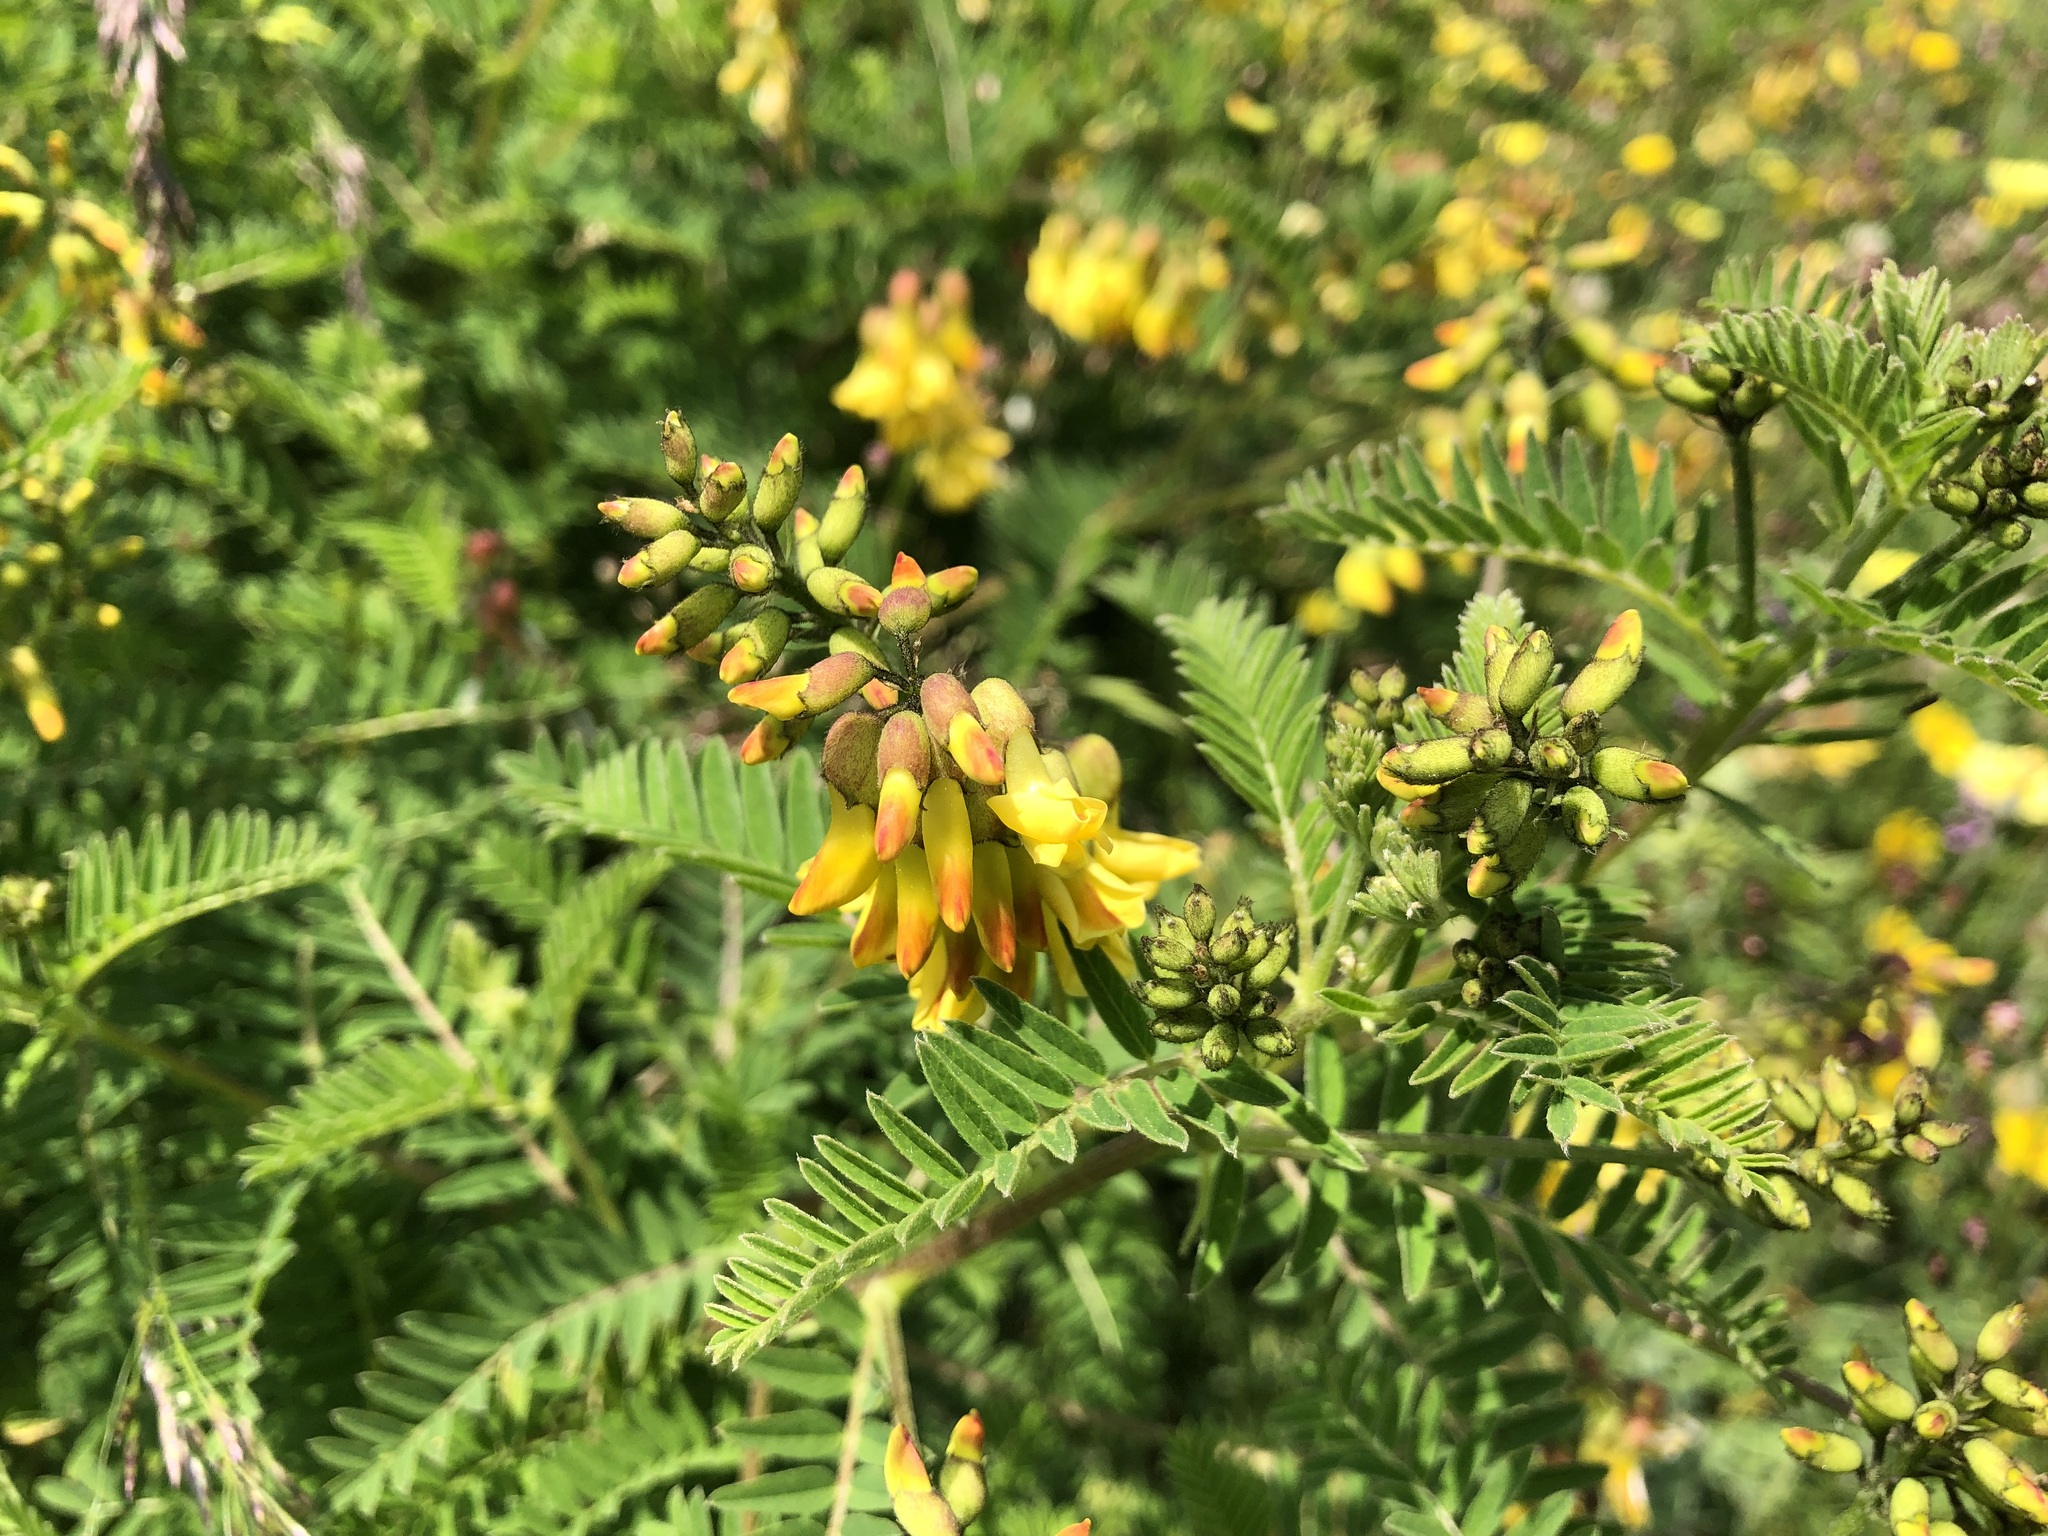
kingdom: Plantae
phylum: Tracheophyta
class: Magnoliopsida
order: Fabales
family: Fabaceae
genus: Astragalus
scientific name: Astragalus penduliflorus
